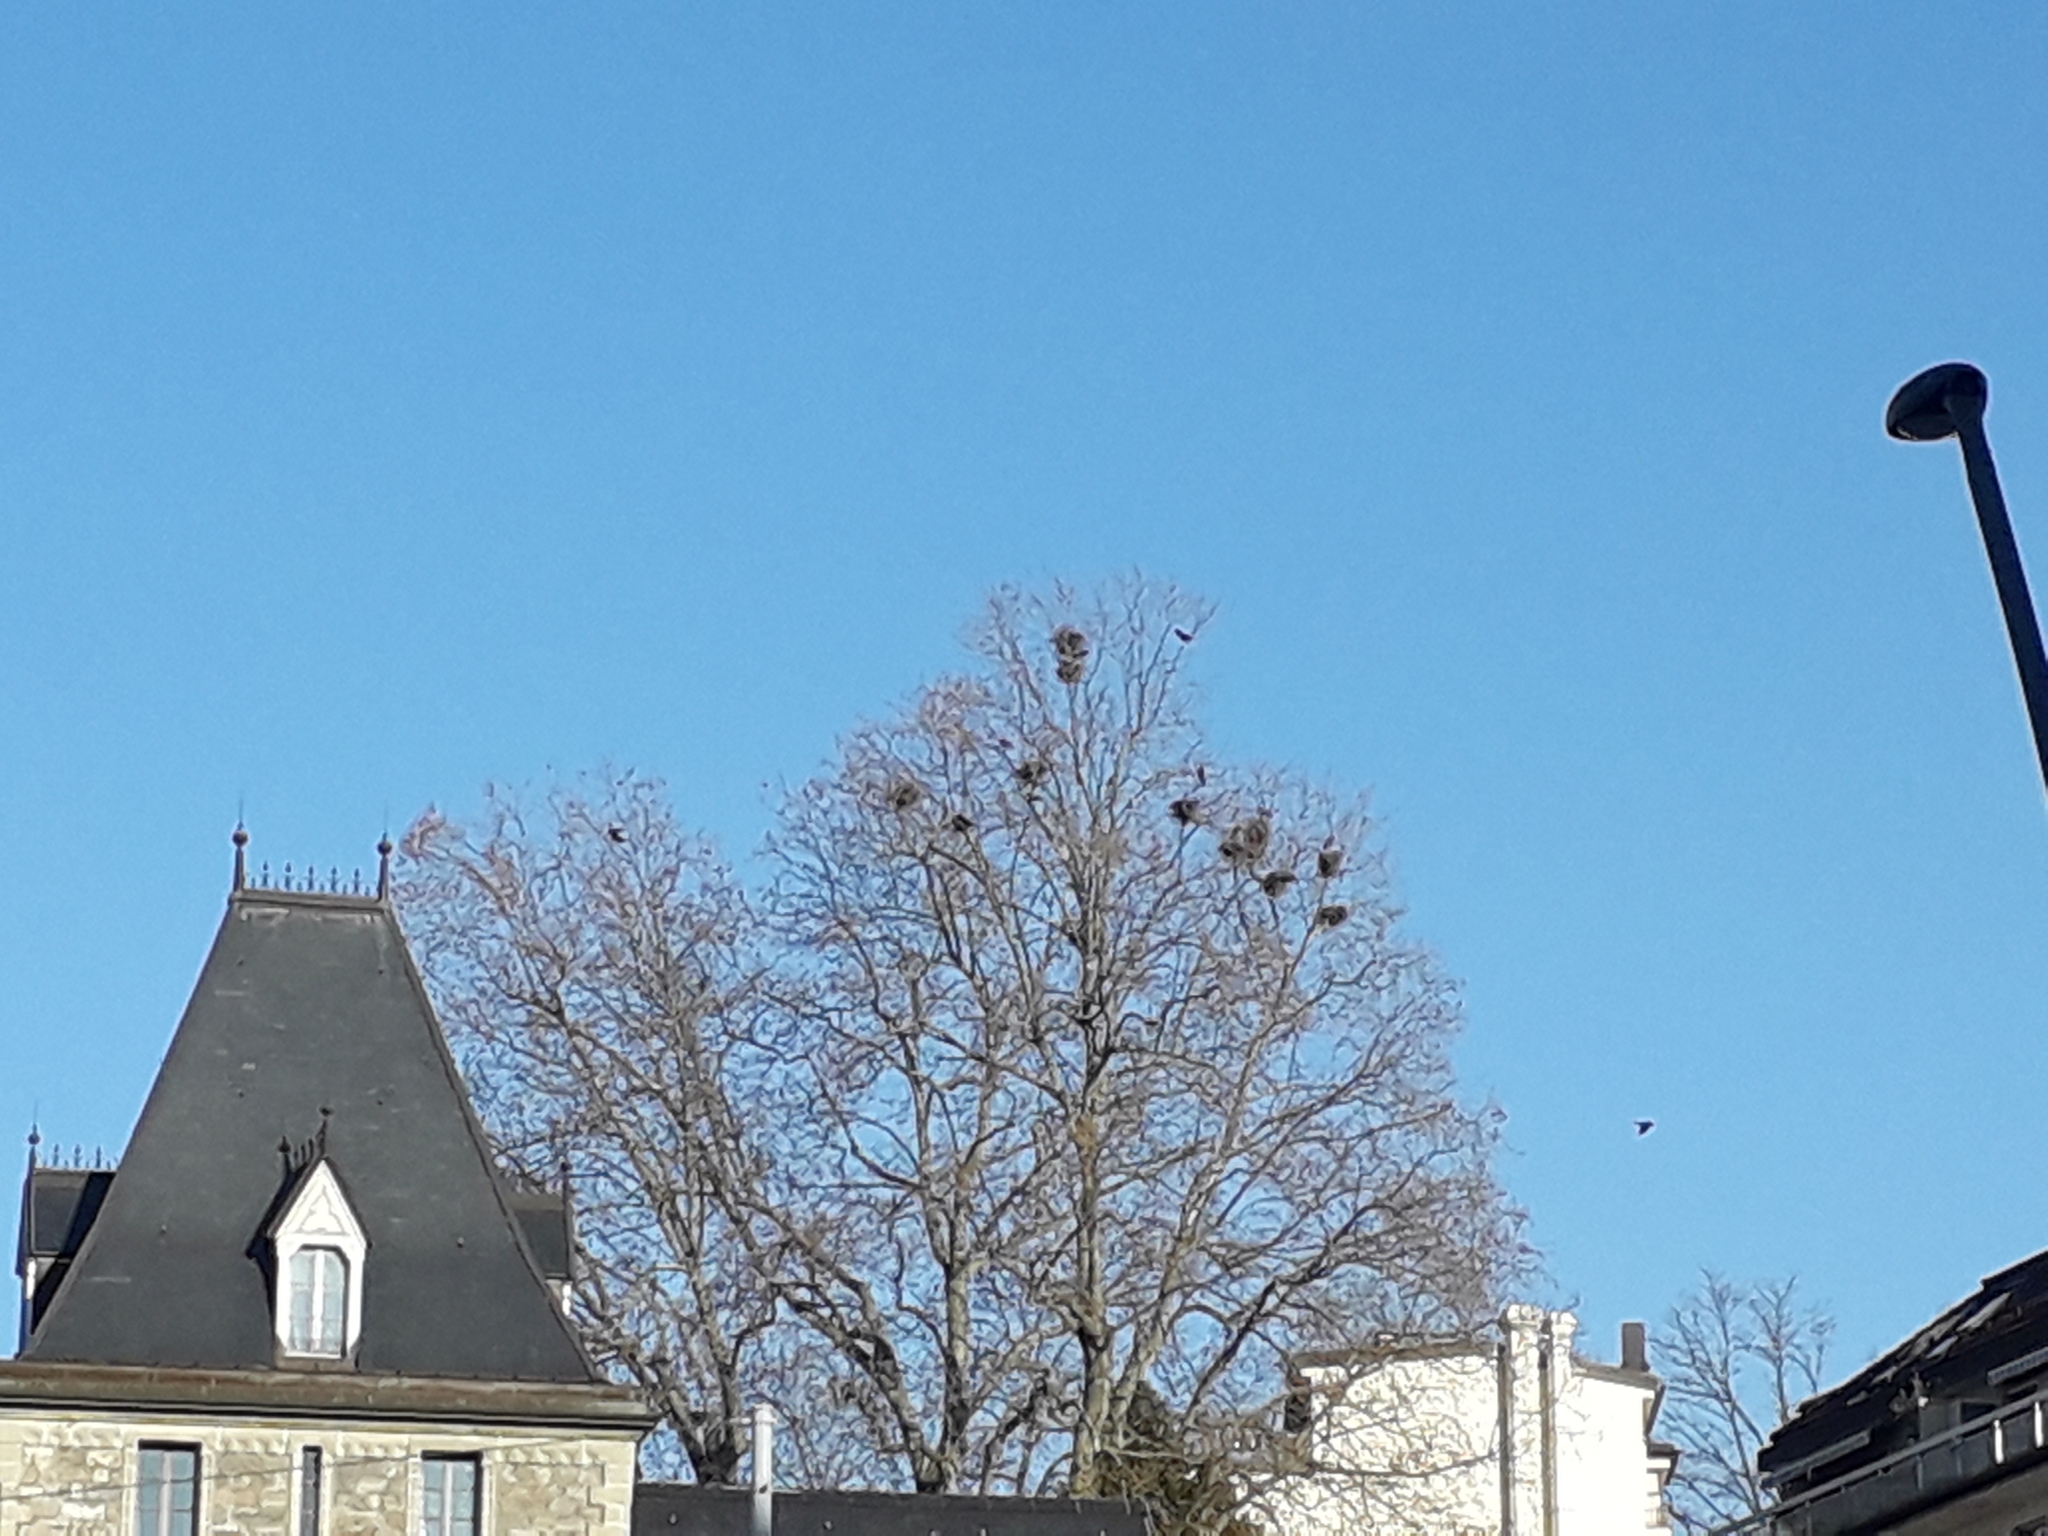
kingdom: Animalia
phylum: Chordata
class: Aves
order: Passeriformes
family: Corvidae
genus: Corvus
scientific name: Corvus frugilegus
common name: Rook
